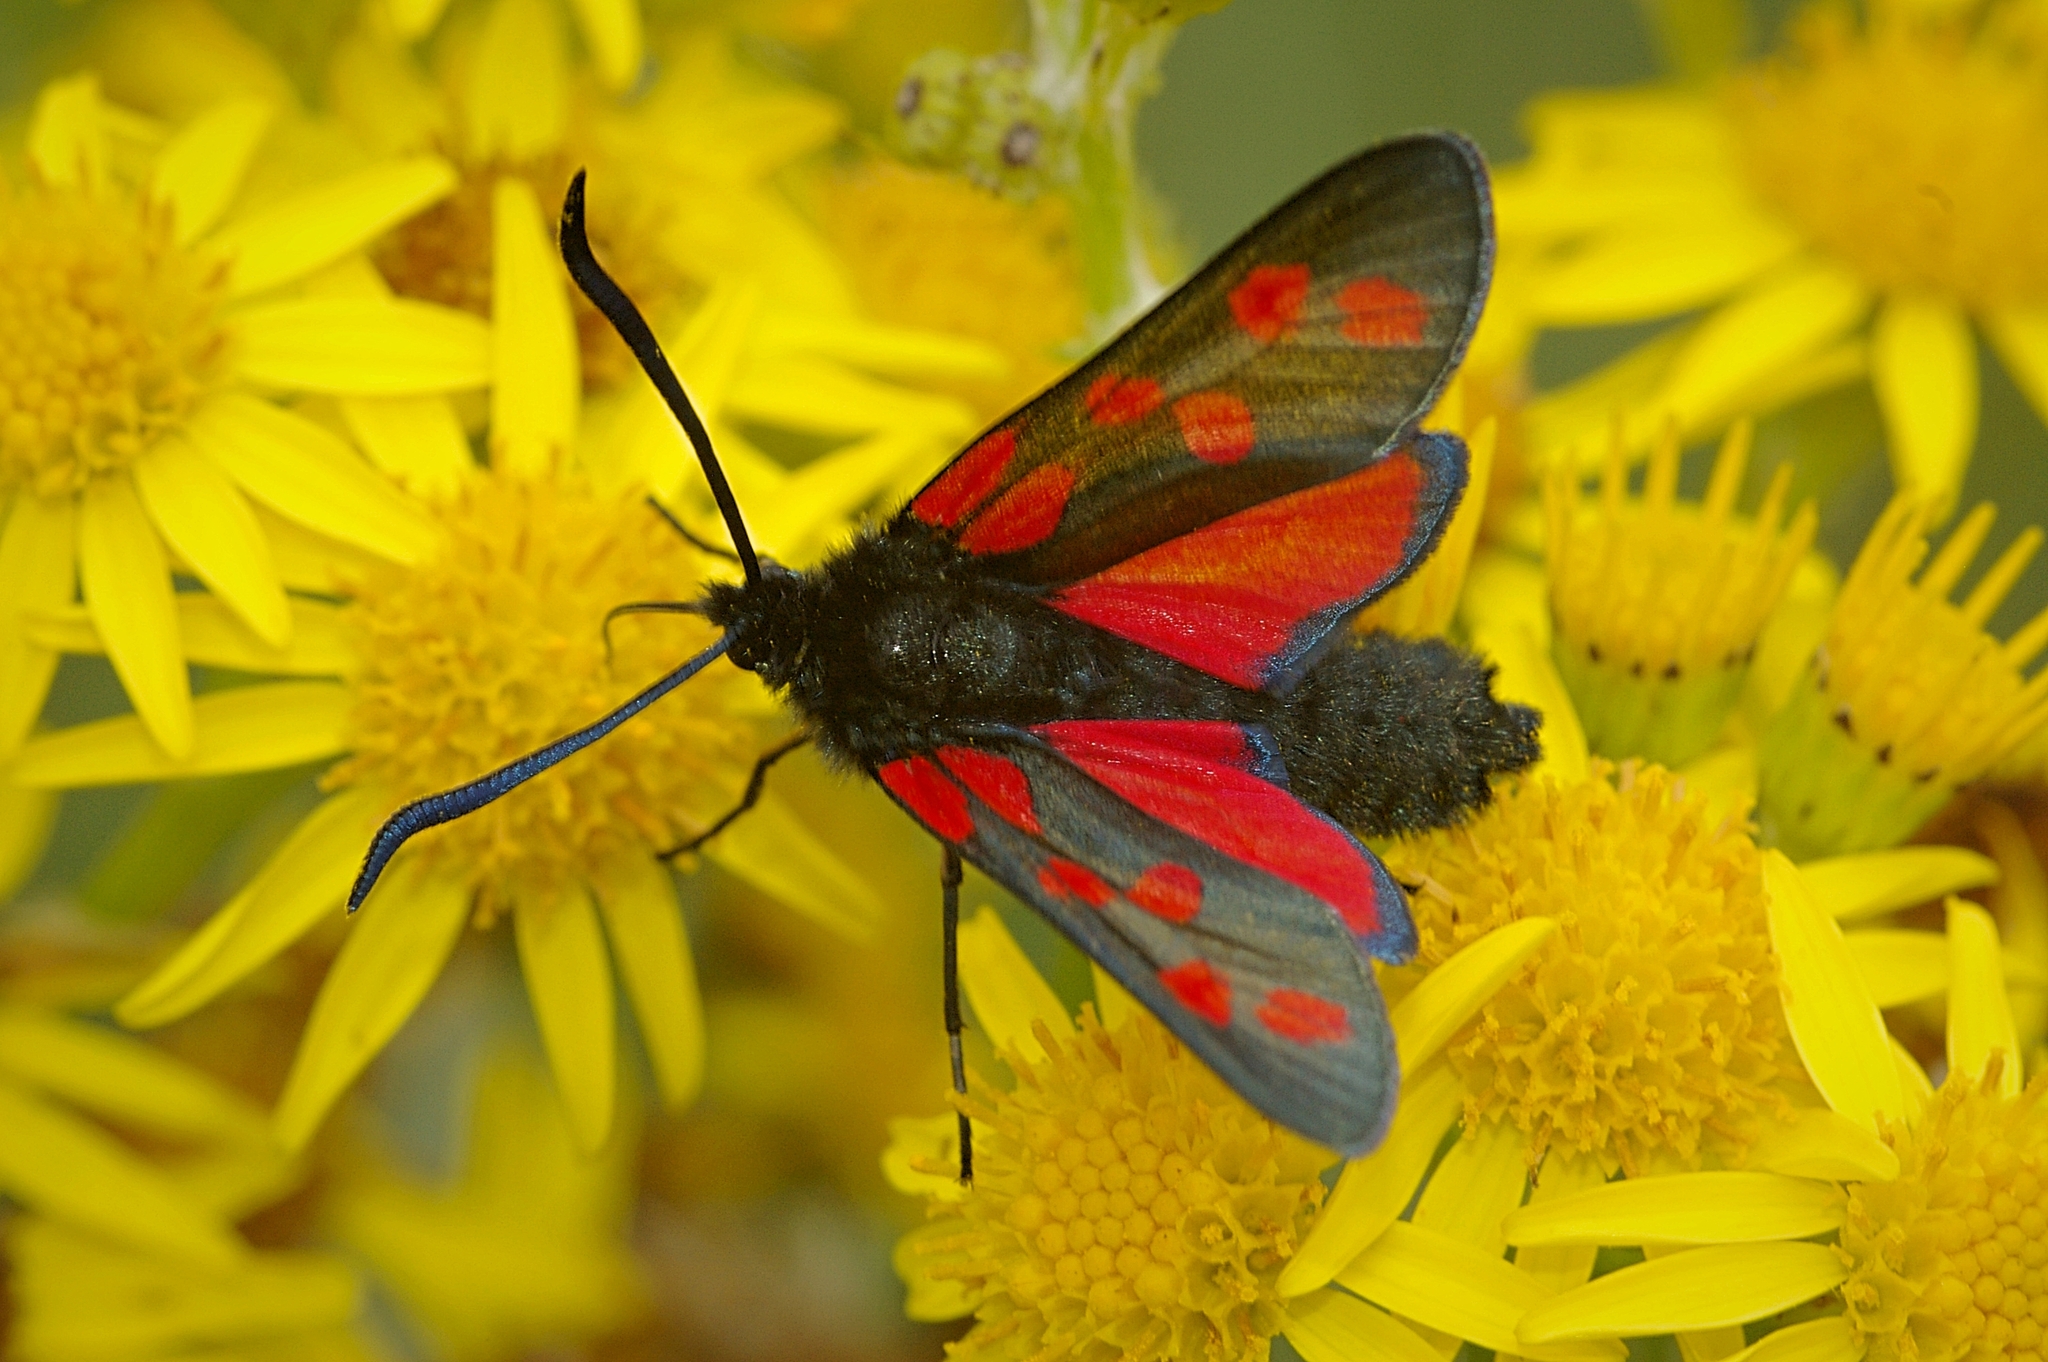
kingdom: Animalia
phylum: Arthropoda
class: Insecta
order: Lepidoptera
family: Zygaenidae
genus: Zygaena
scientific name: Zygaena filipendulae
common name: Six-spot burnet
